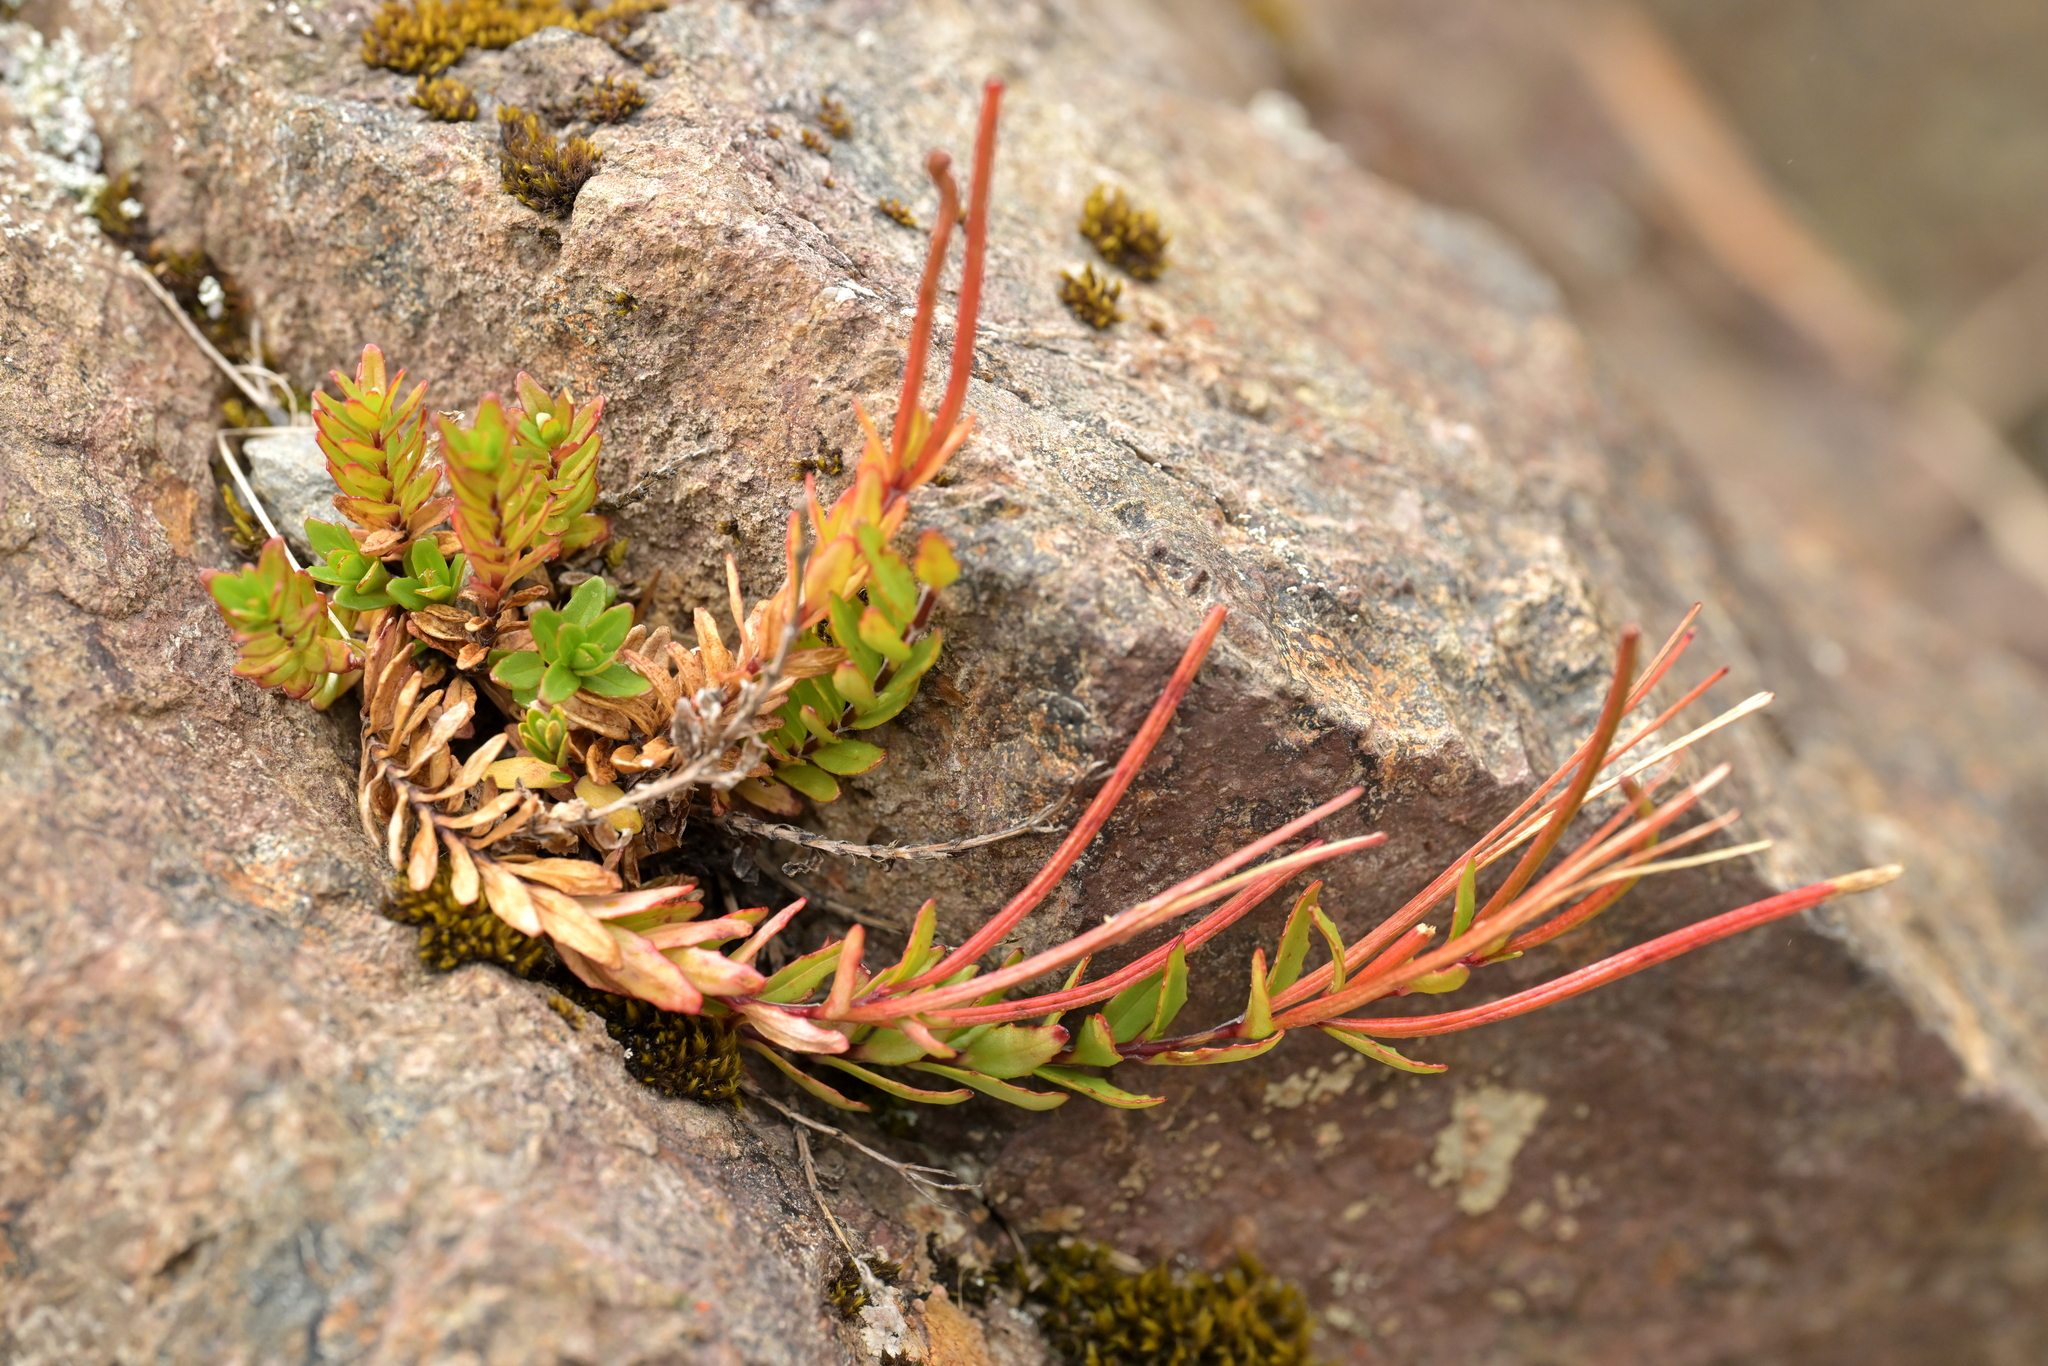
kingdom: Plantae
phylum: Tracheophyta
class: Magnoliopsida
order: Myrtales
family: Onagraceae
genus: Epilobium
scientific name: Epilobium glabellum
